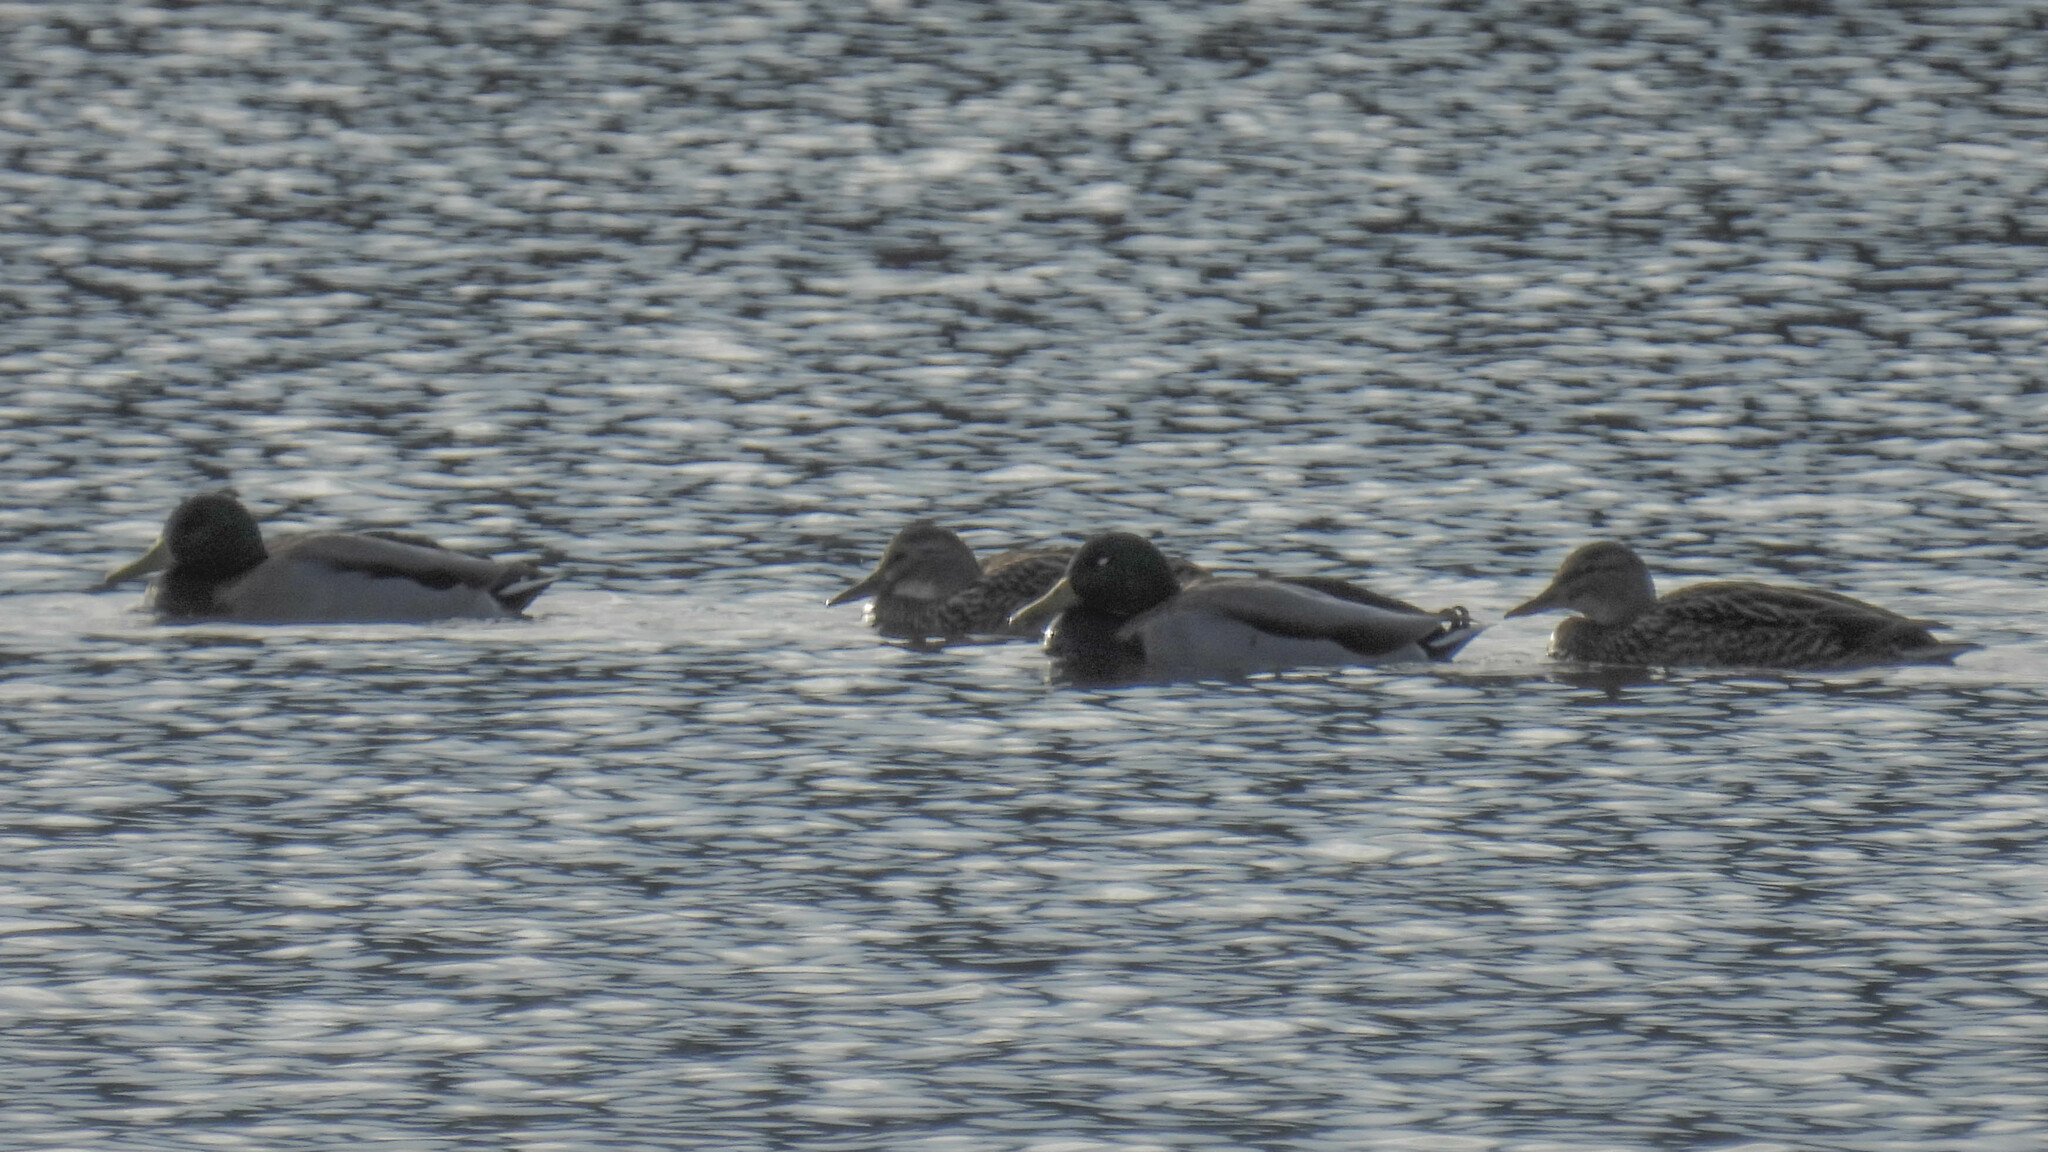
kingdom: Animalia
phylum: Chordata
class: Aves
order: Anseriformes
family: Anatidae
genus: Anas
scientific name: Anas platyrhynchos
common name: Mallard
